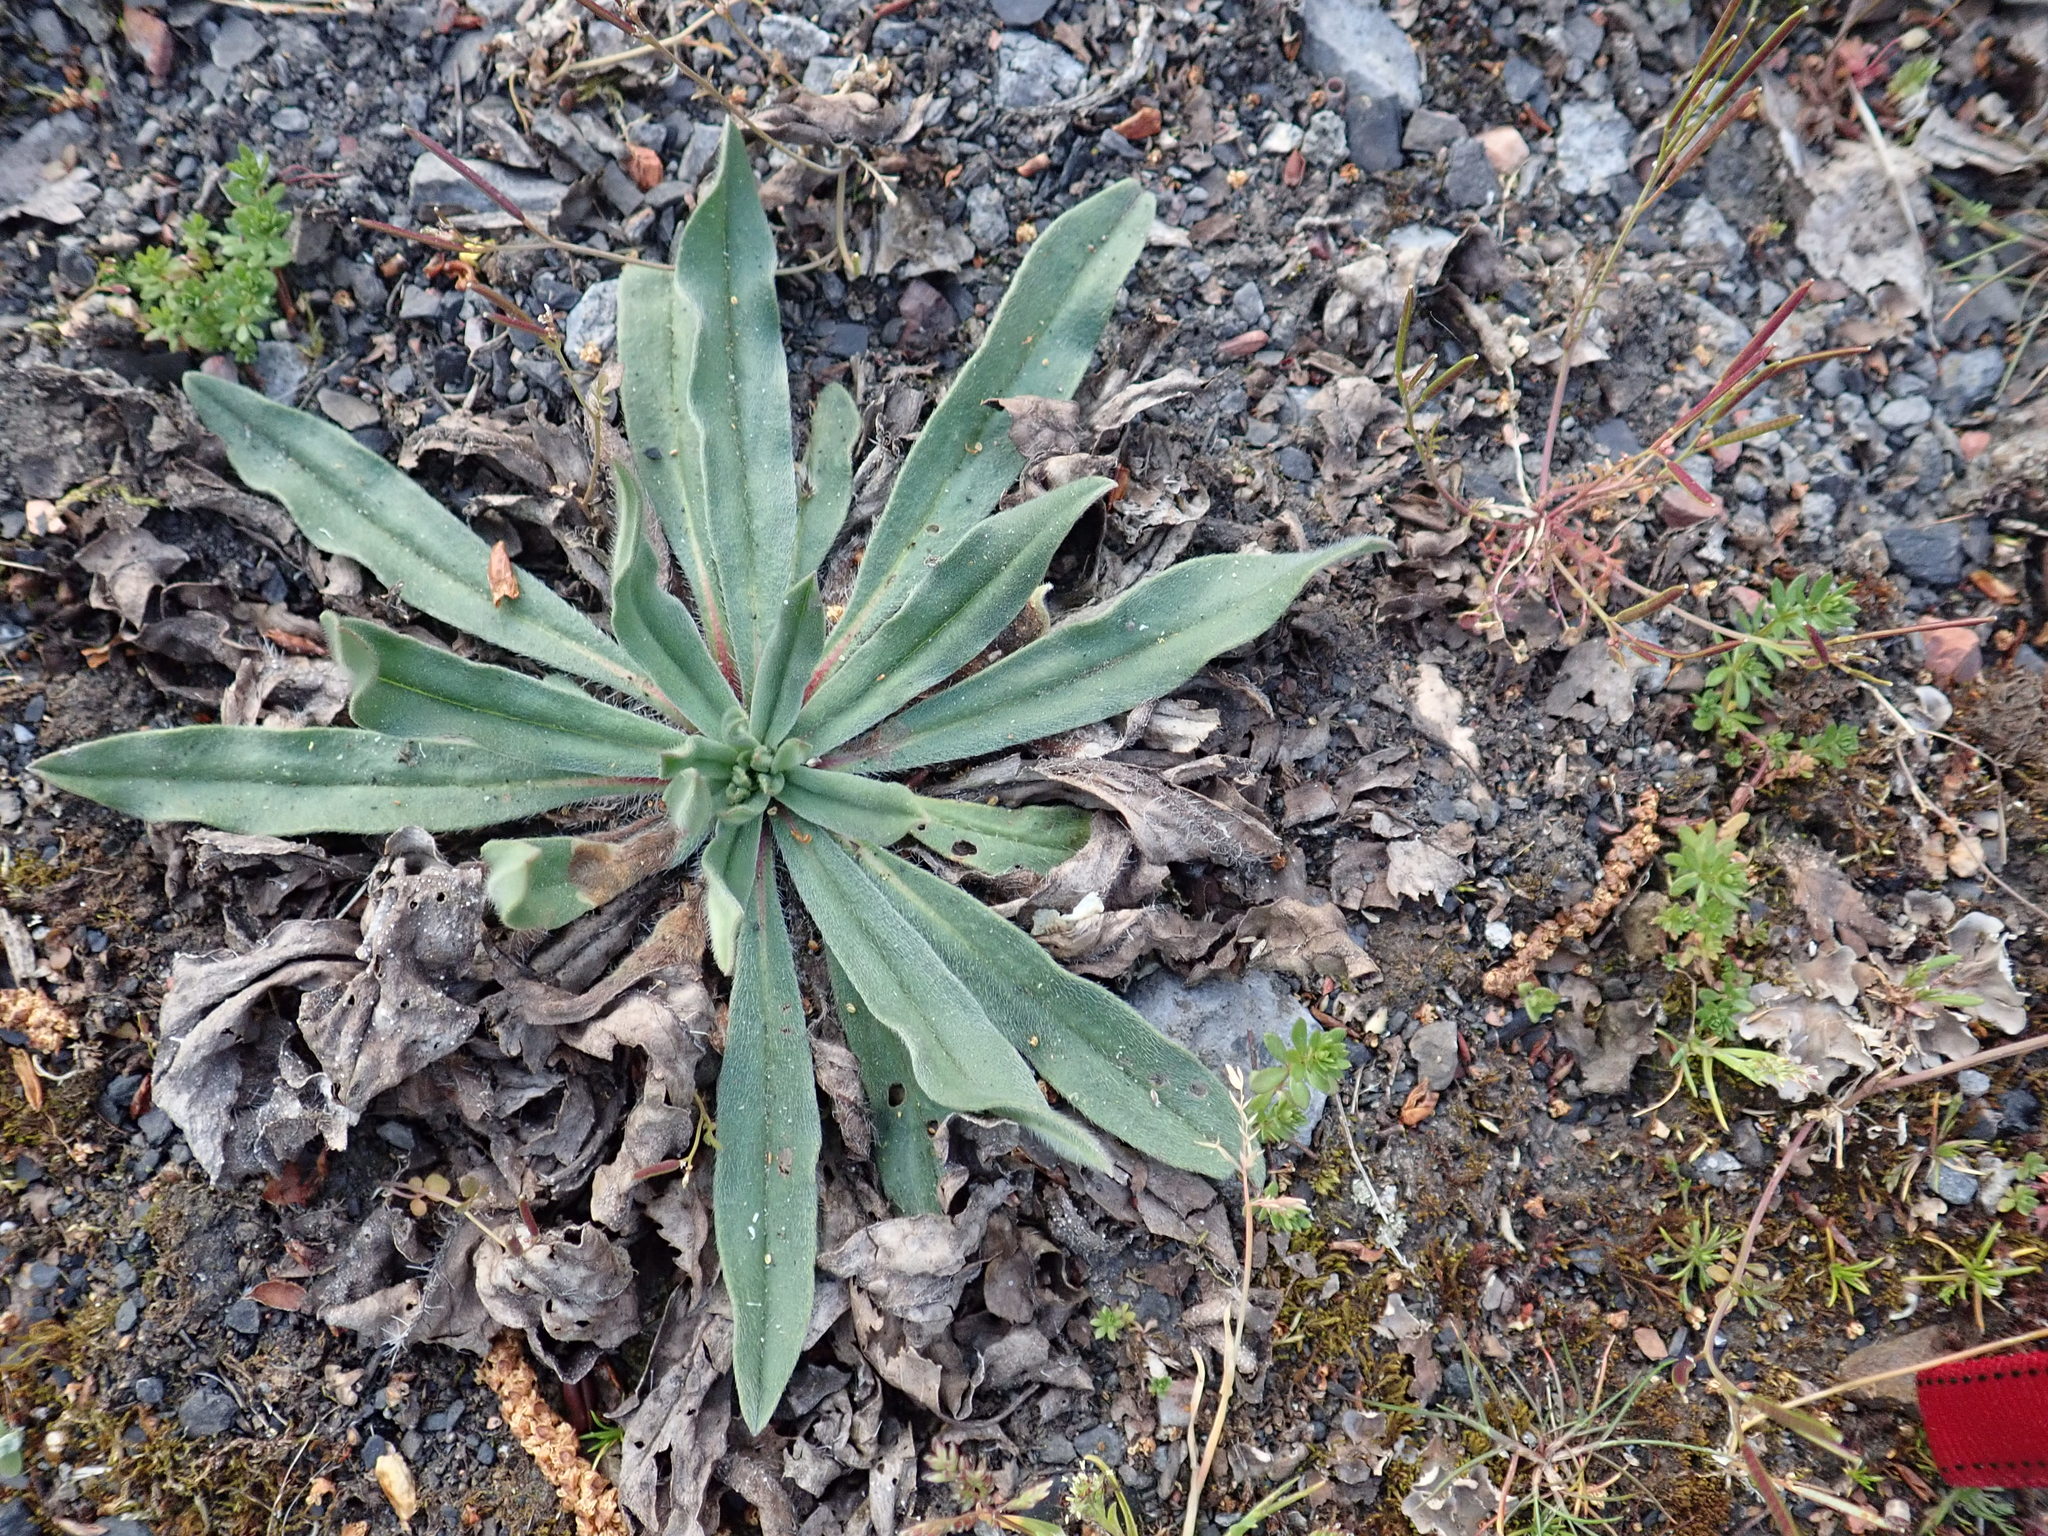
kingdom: Plantae
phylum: Tracheophyta
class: Magnoliopsida
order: Boraginales
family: Boraginaceae
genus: Echium
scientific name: Echium vulgare
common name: Common viper's bugloss
